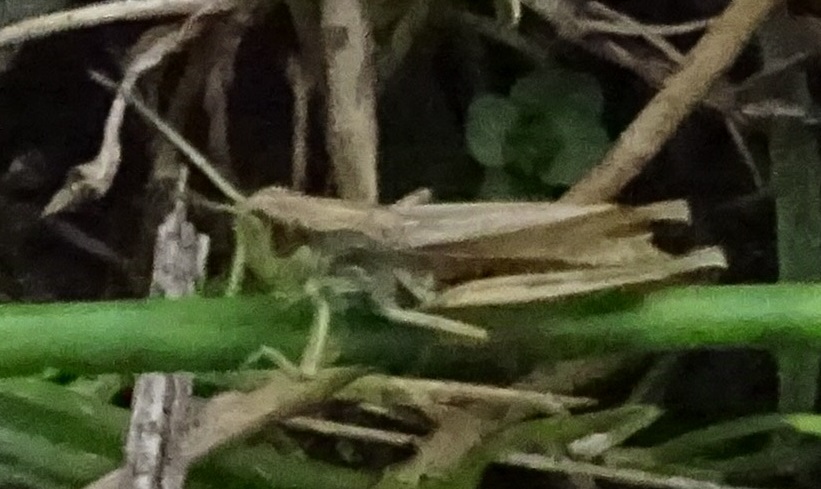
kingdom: Animalia
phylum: Arthropoda
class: Insecta
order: Orthoptera
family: Acrididae
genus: Pseudochorthippus
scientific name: Pseudochorthippus parallelus
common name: Meadow grasshopper
